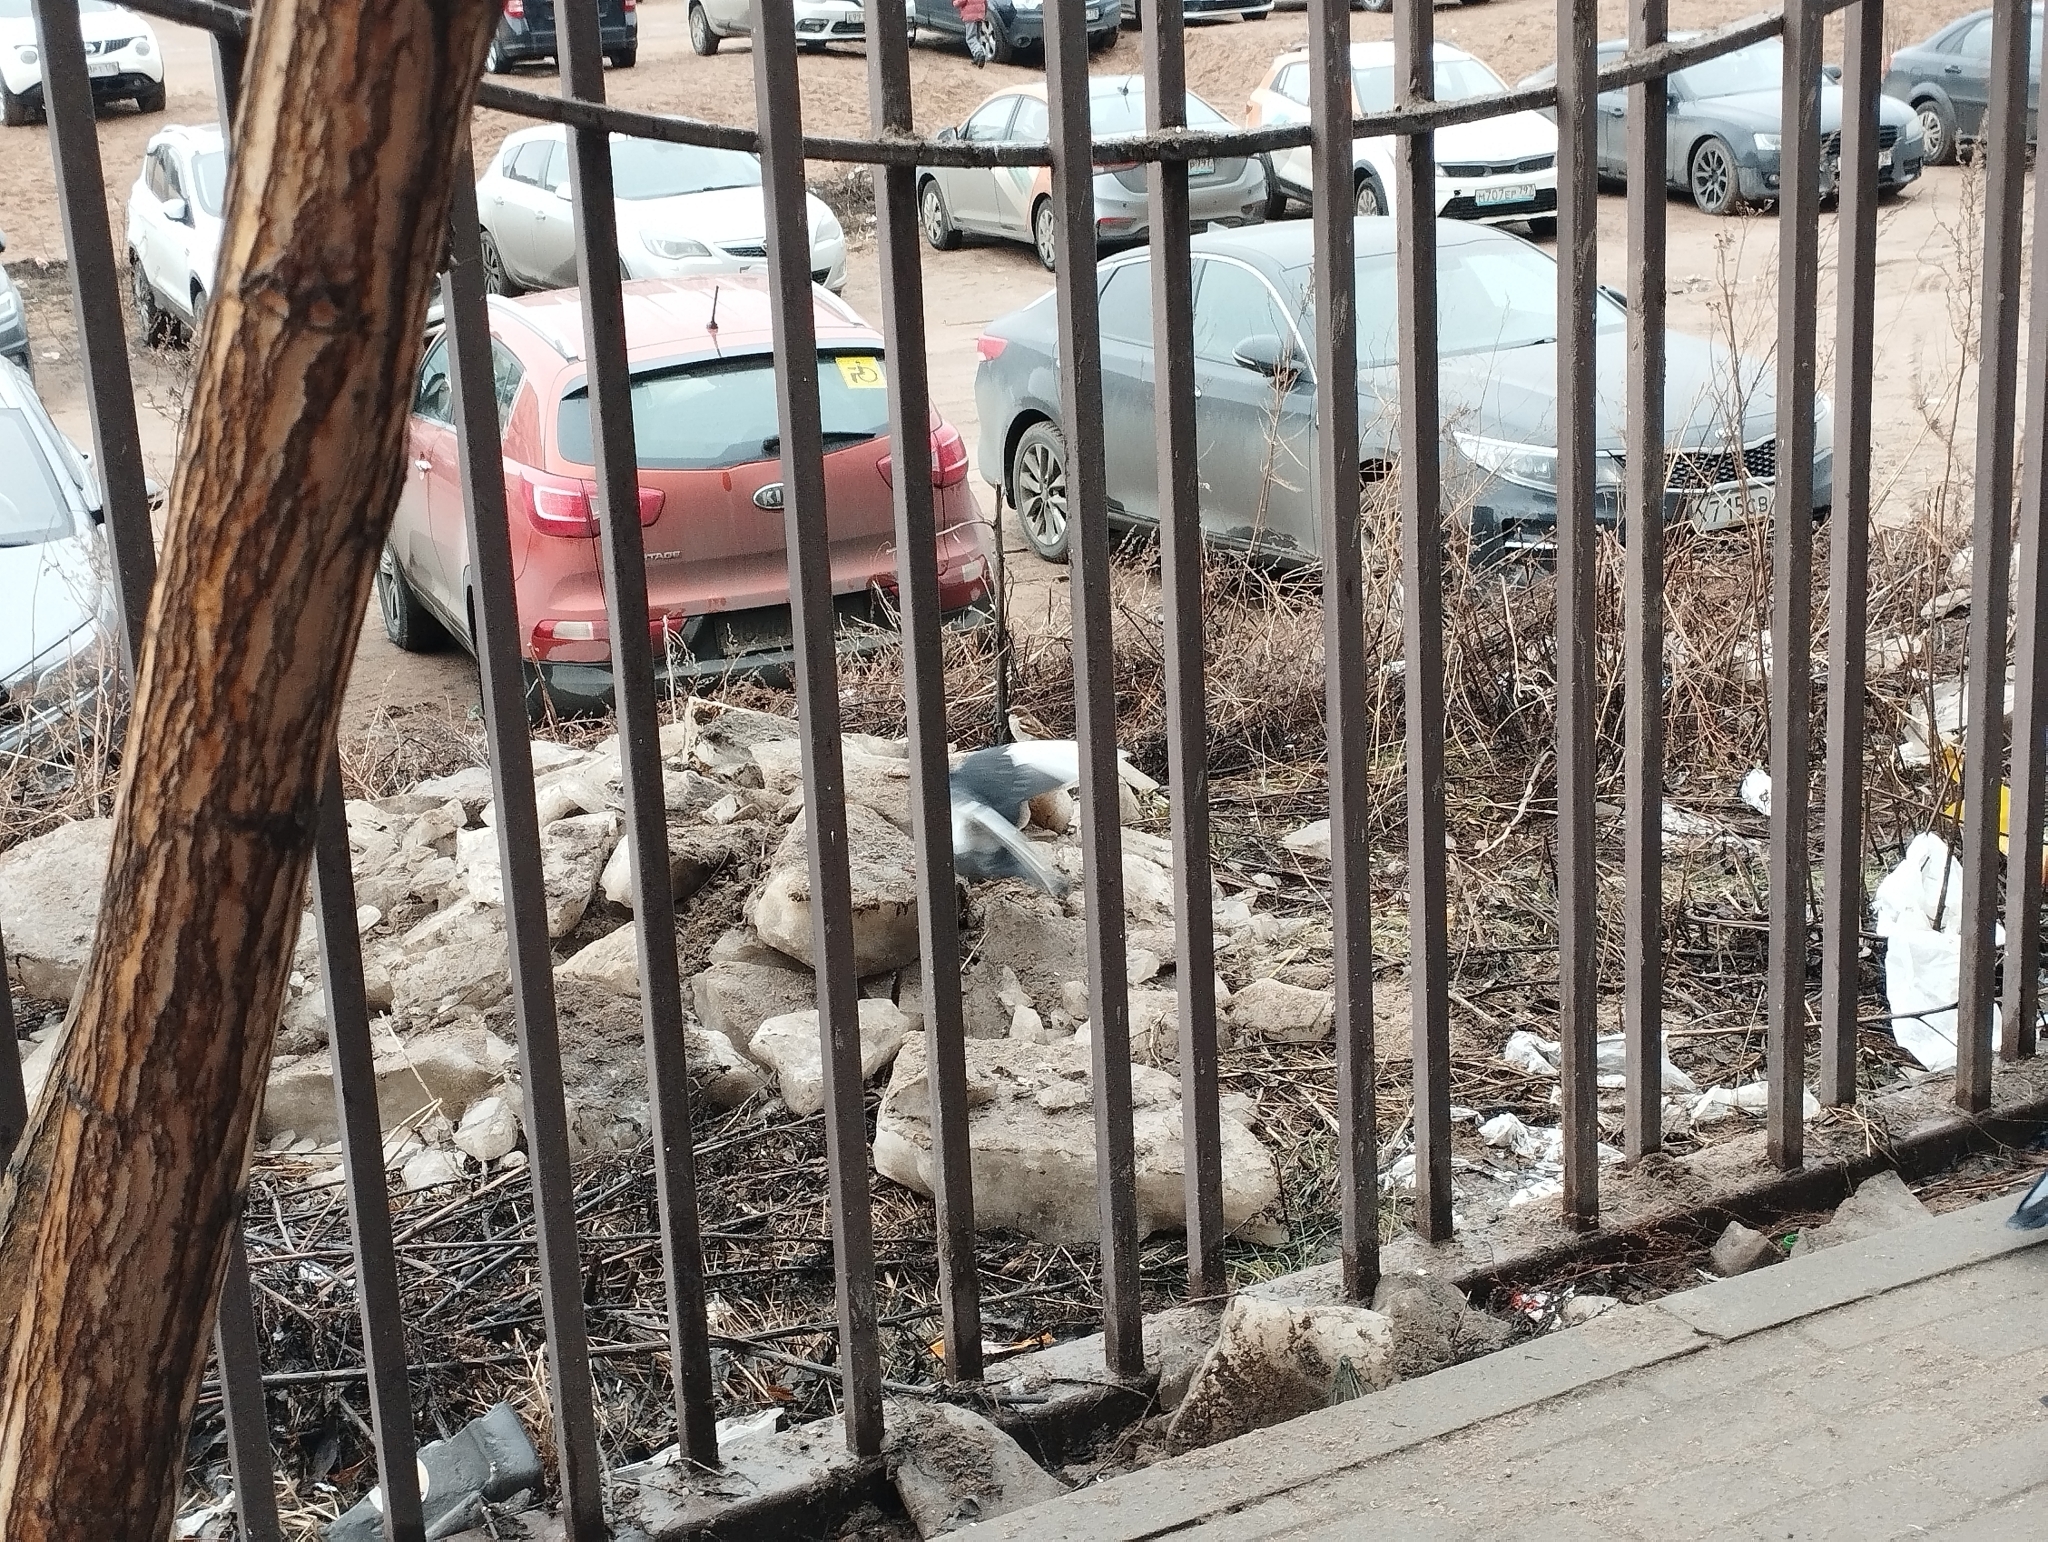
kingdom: Animalia
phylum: Chordata
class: Aves
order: Passeriformes
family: Passeridae
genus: Passer
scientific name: Passer domesticus
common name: House sparrow
